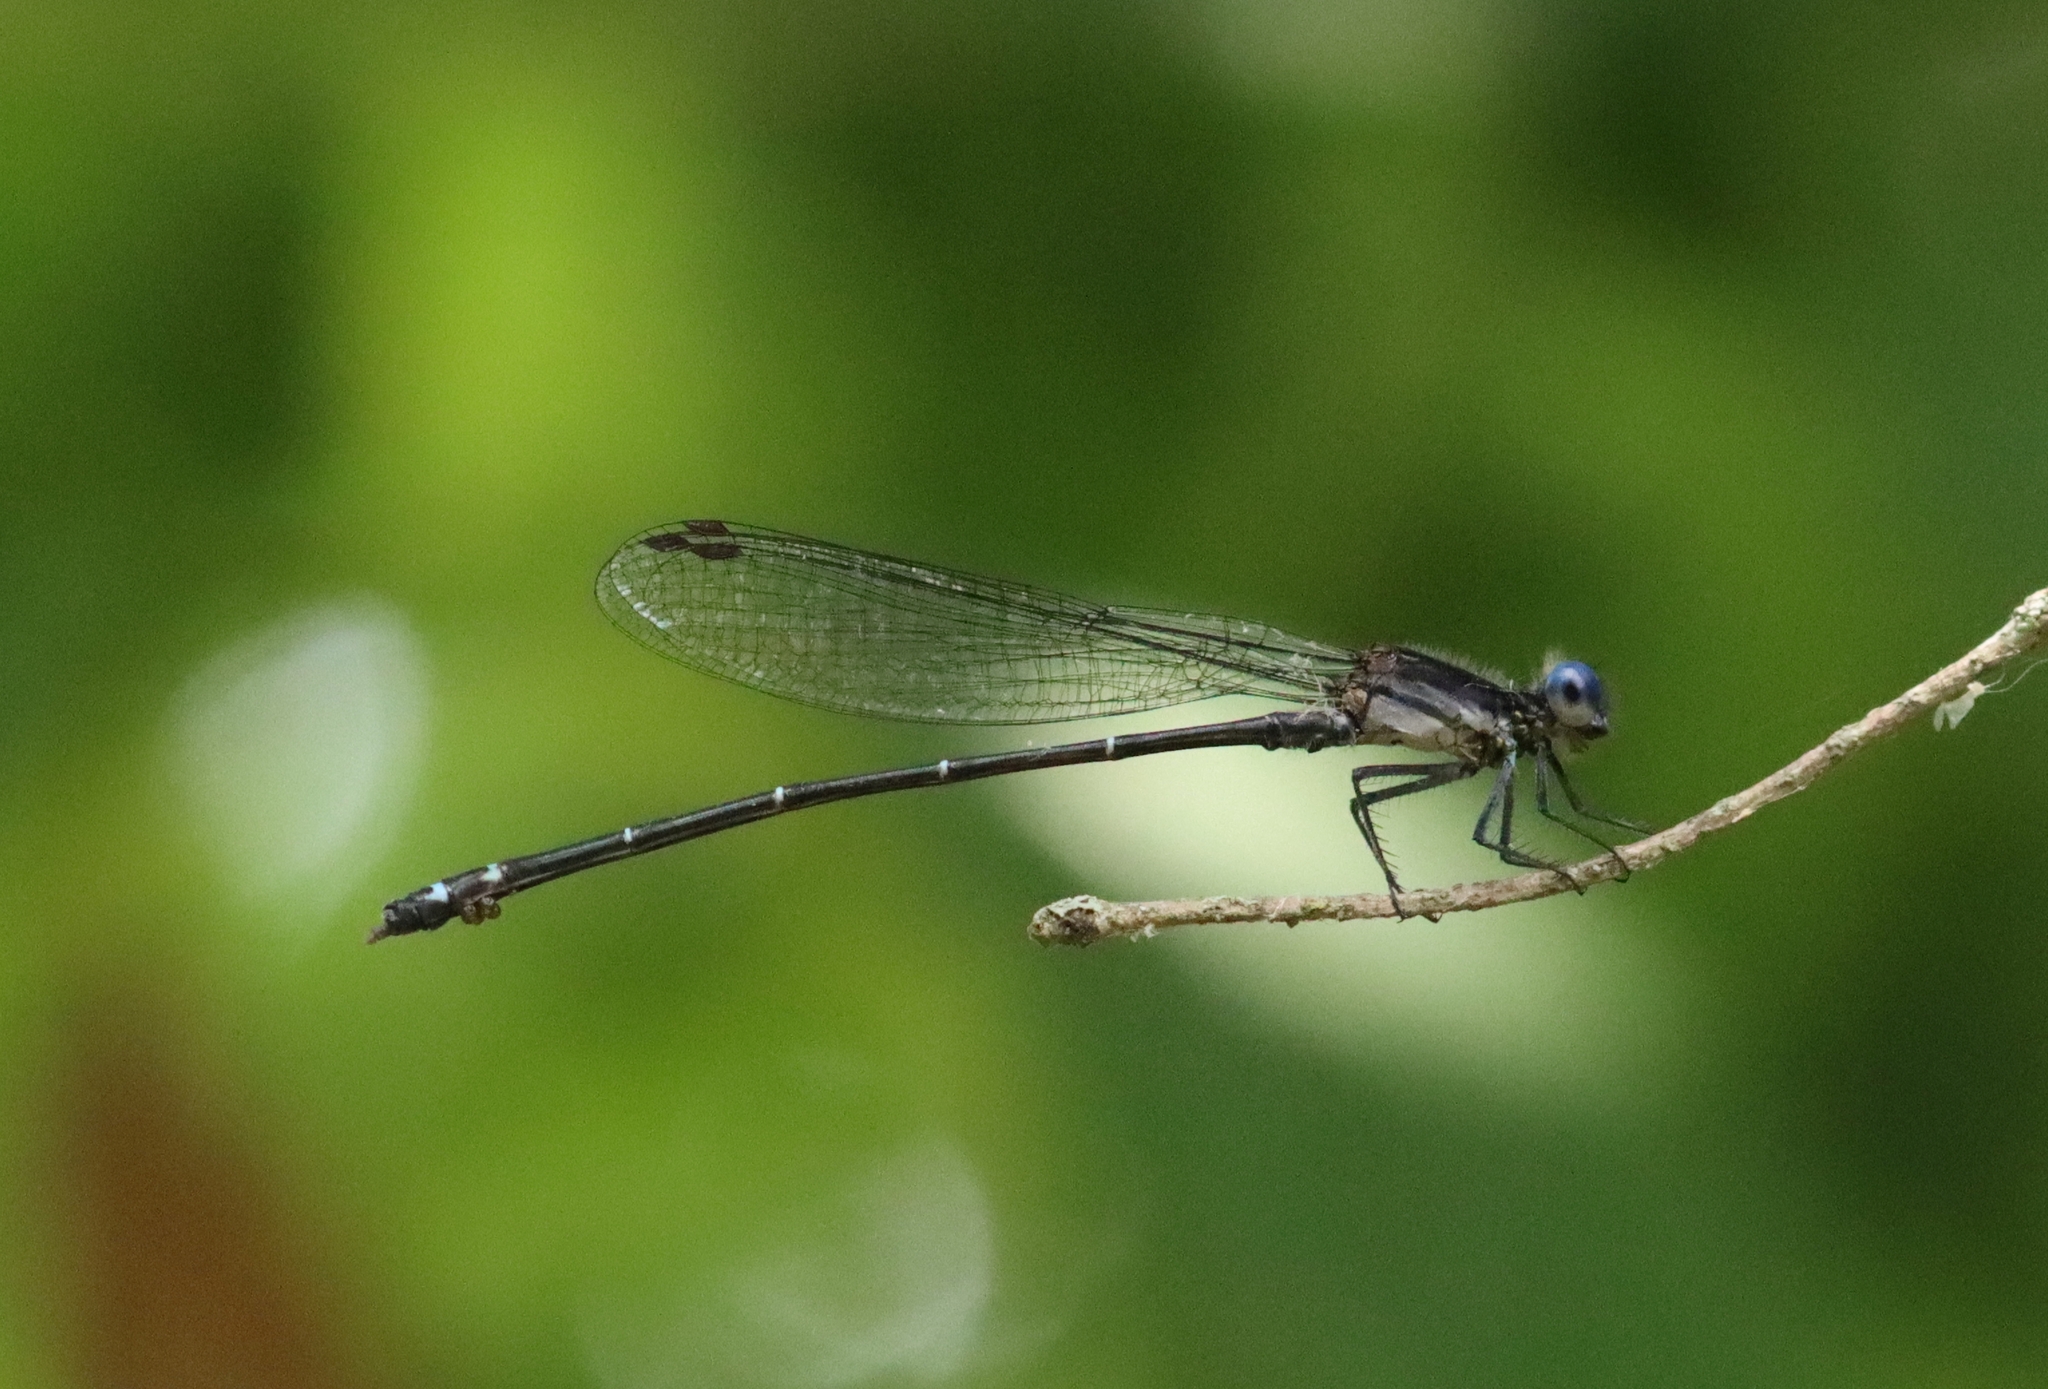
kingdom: Animalia
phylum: Arthropoda
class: Insecta
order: Odonata
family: Coenagrionidae
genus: Argia
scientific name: Argia translata
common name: Dusky dancer
